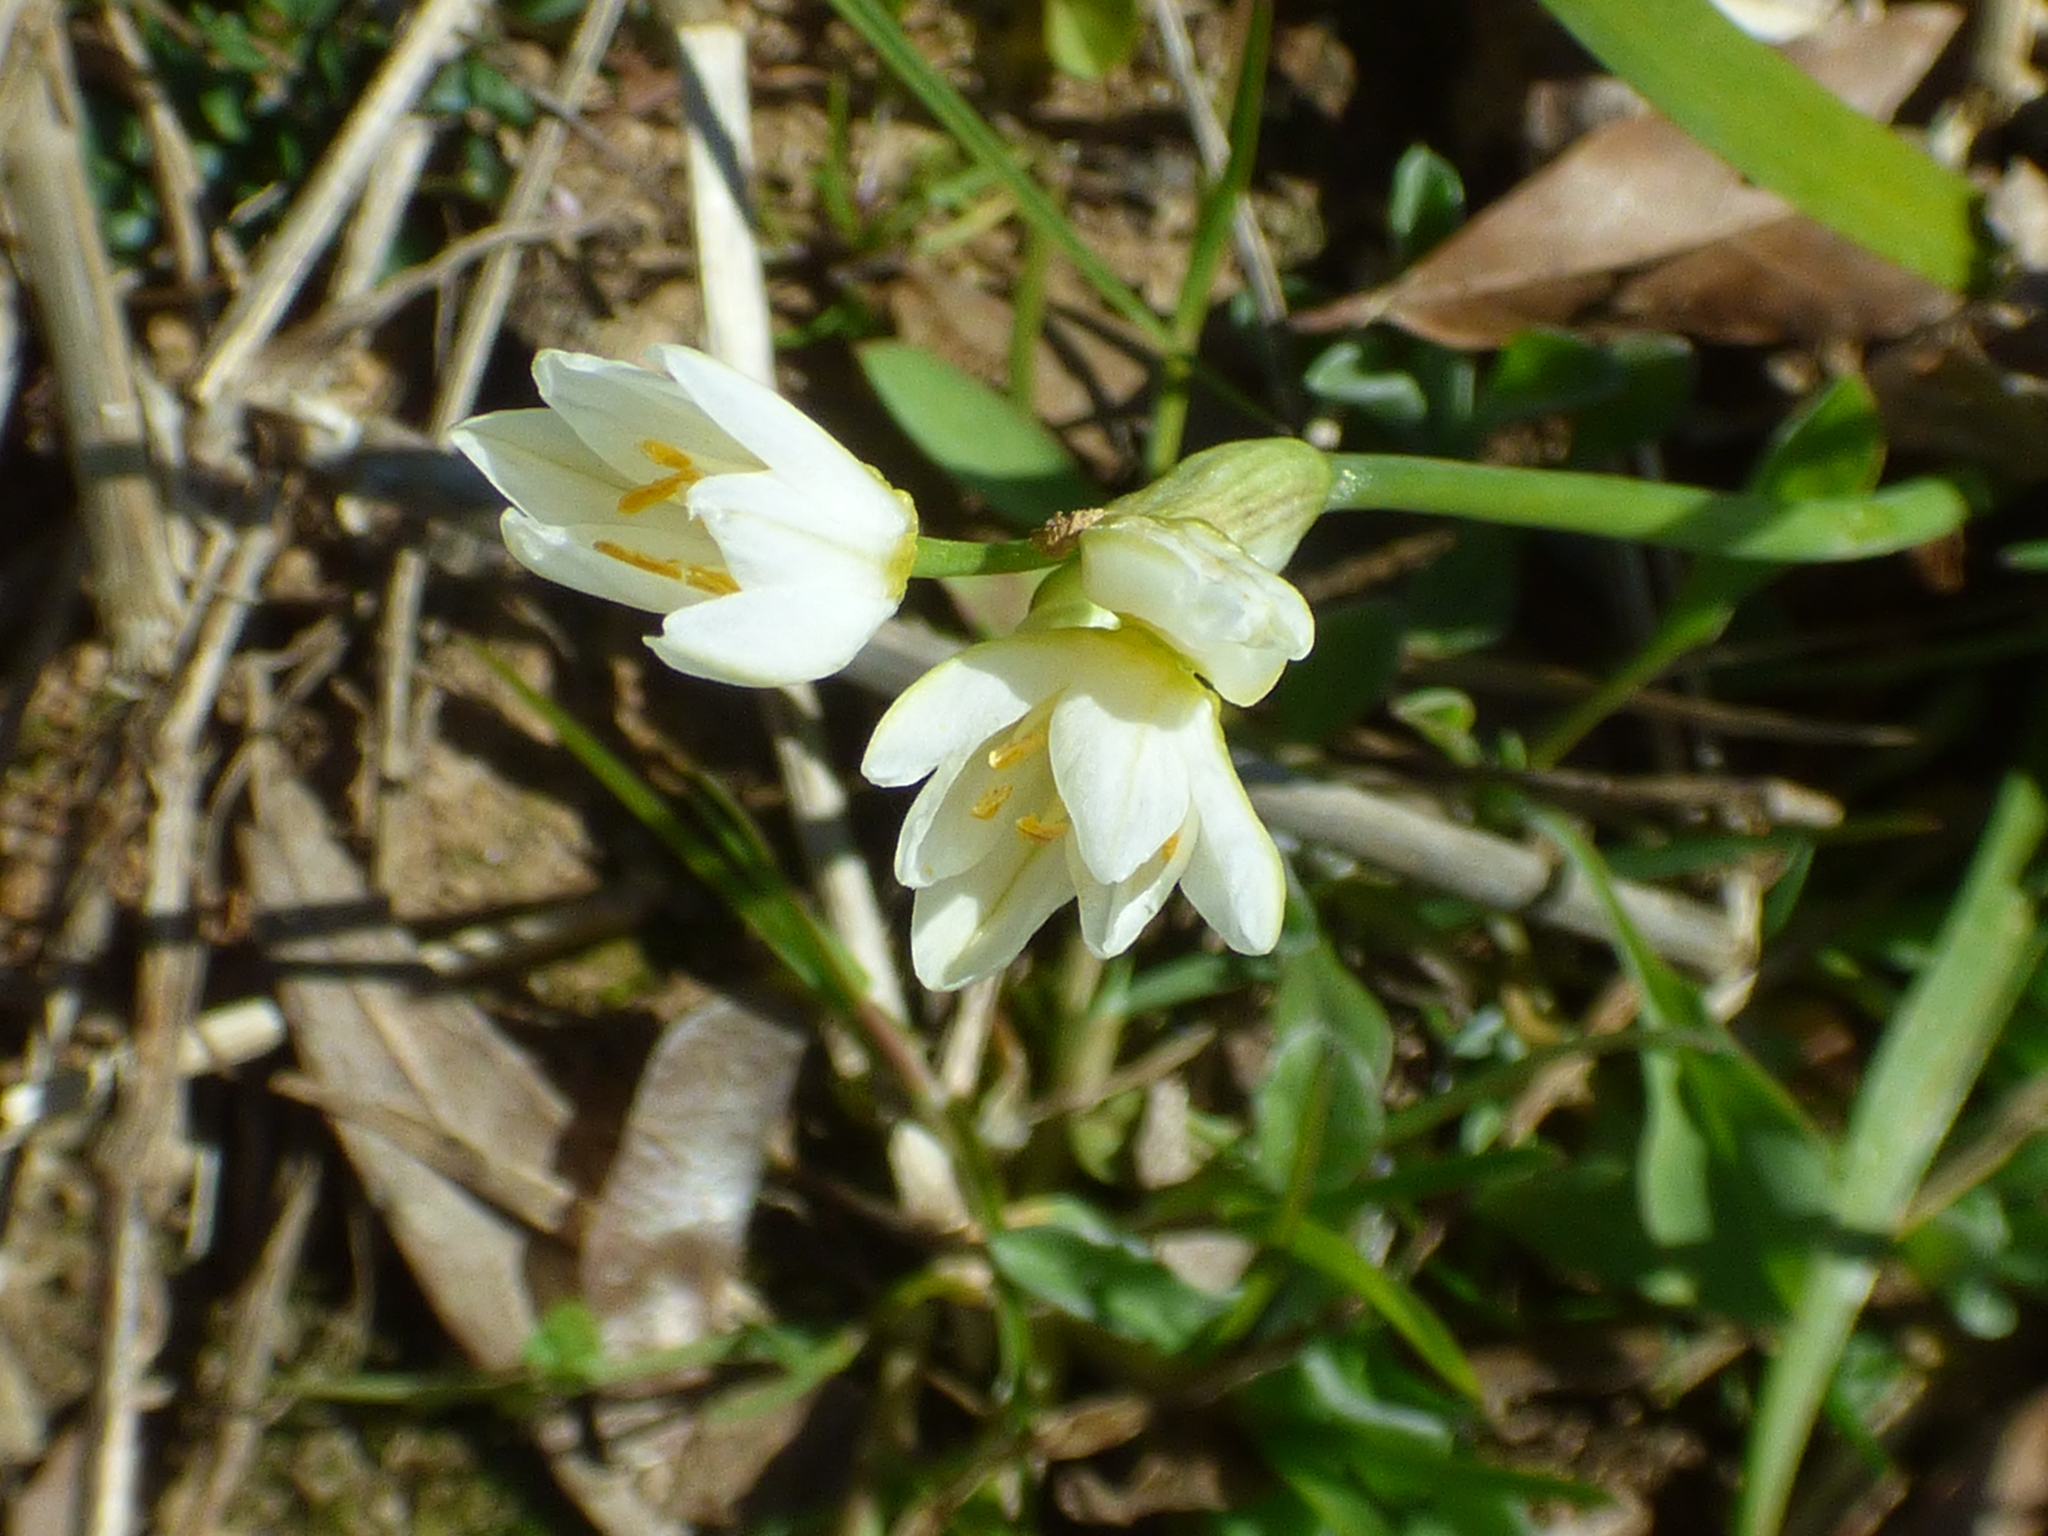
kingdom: Plantae
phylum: Tracheophyta
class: Liliopsida
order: Asparagales
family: Amaryllidaceae
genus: Nothoscordum
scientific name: Nothoscordum bivalve
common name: Crow-poison
